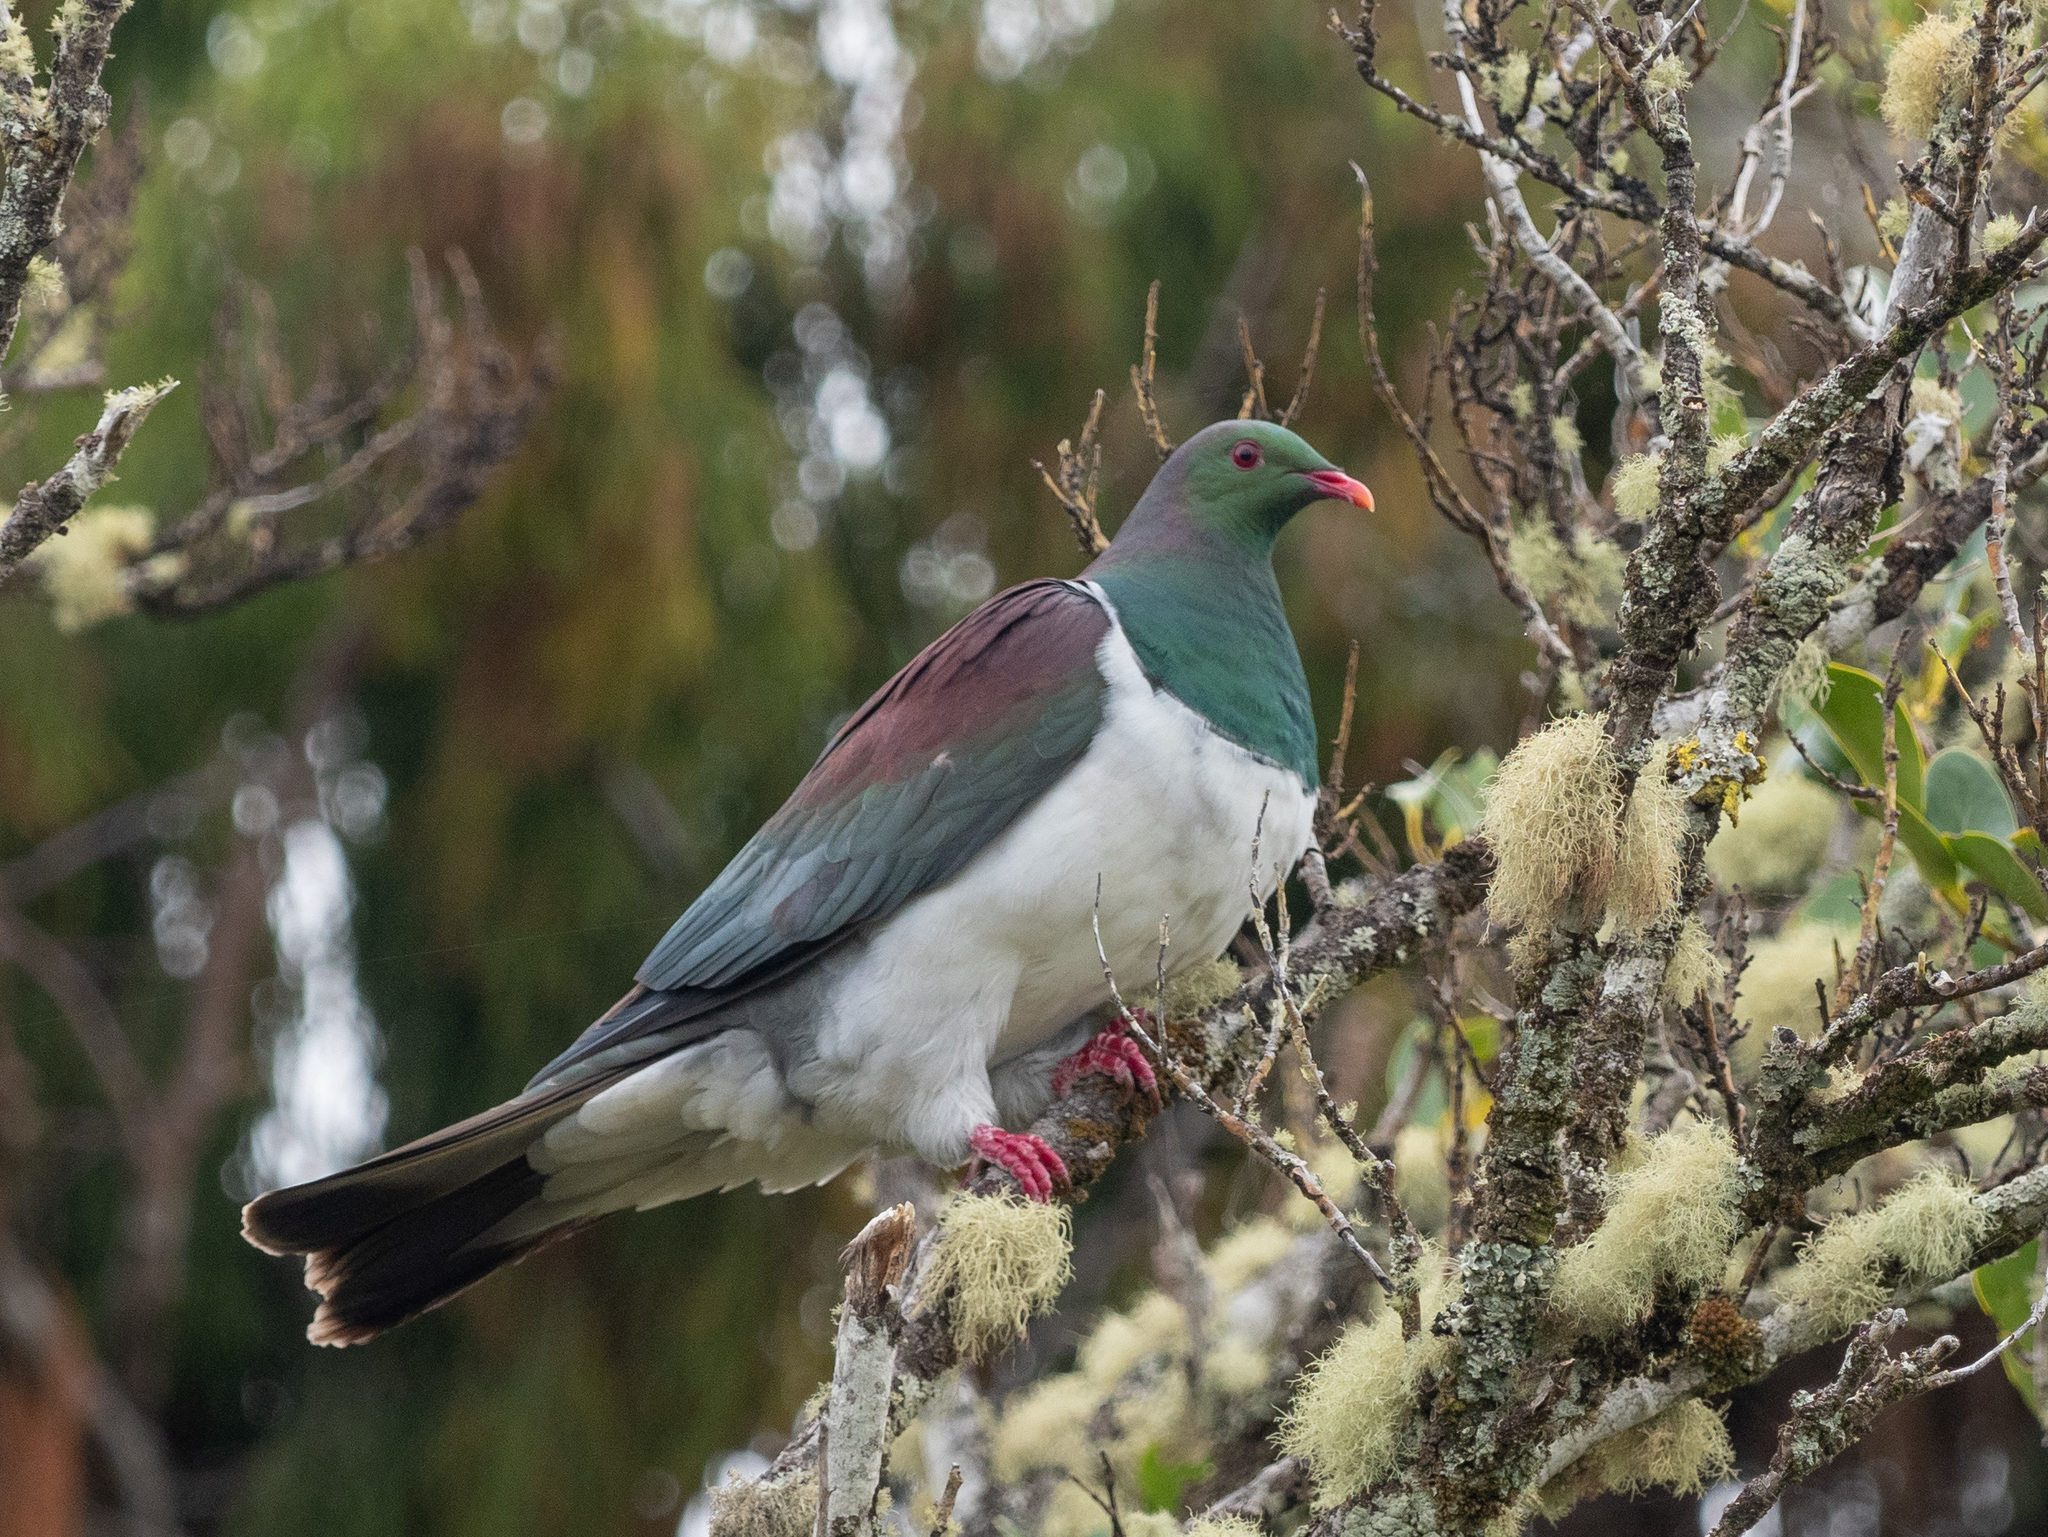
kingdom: Animalia
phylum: Chordata
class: Aves
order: Columbiformes
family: Columbidae
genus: Hemiphaga
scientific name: Hemiphaga novaeseelandiae
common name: New zealand pigeon
